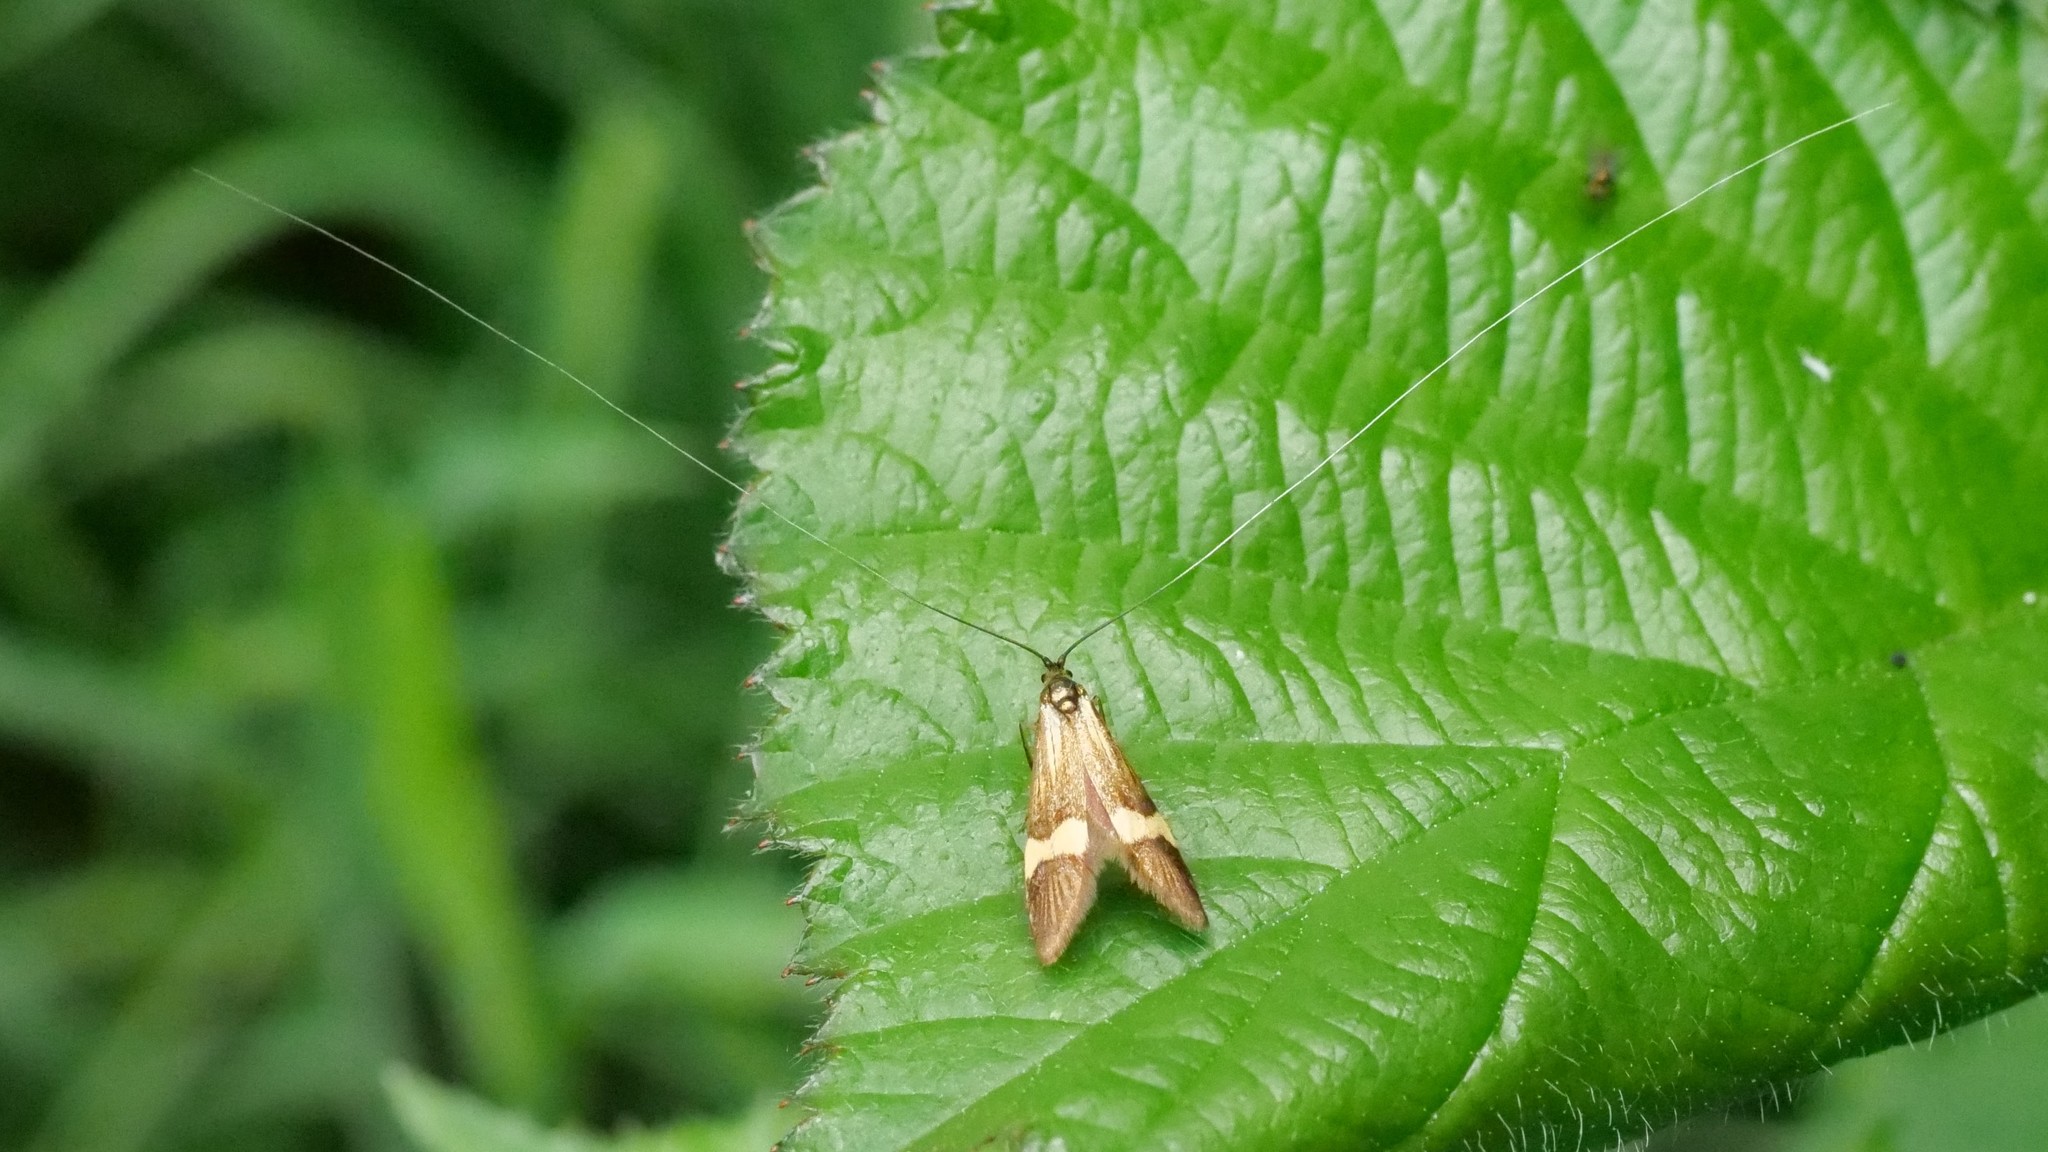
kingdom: Animalia
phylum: Arthropoda
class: Insecta
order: Lepidoptera
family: Adelidae
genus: Nemophora
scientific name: Nemophora degeerella
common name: Yellow-barred long-horn
